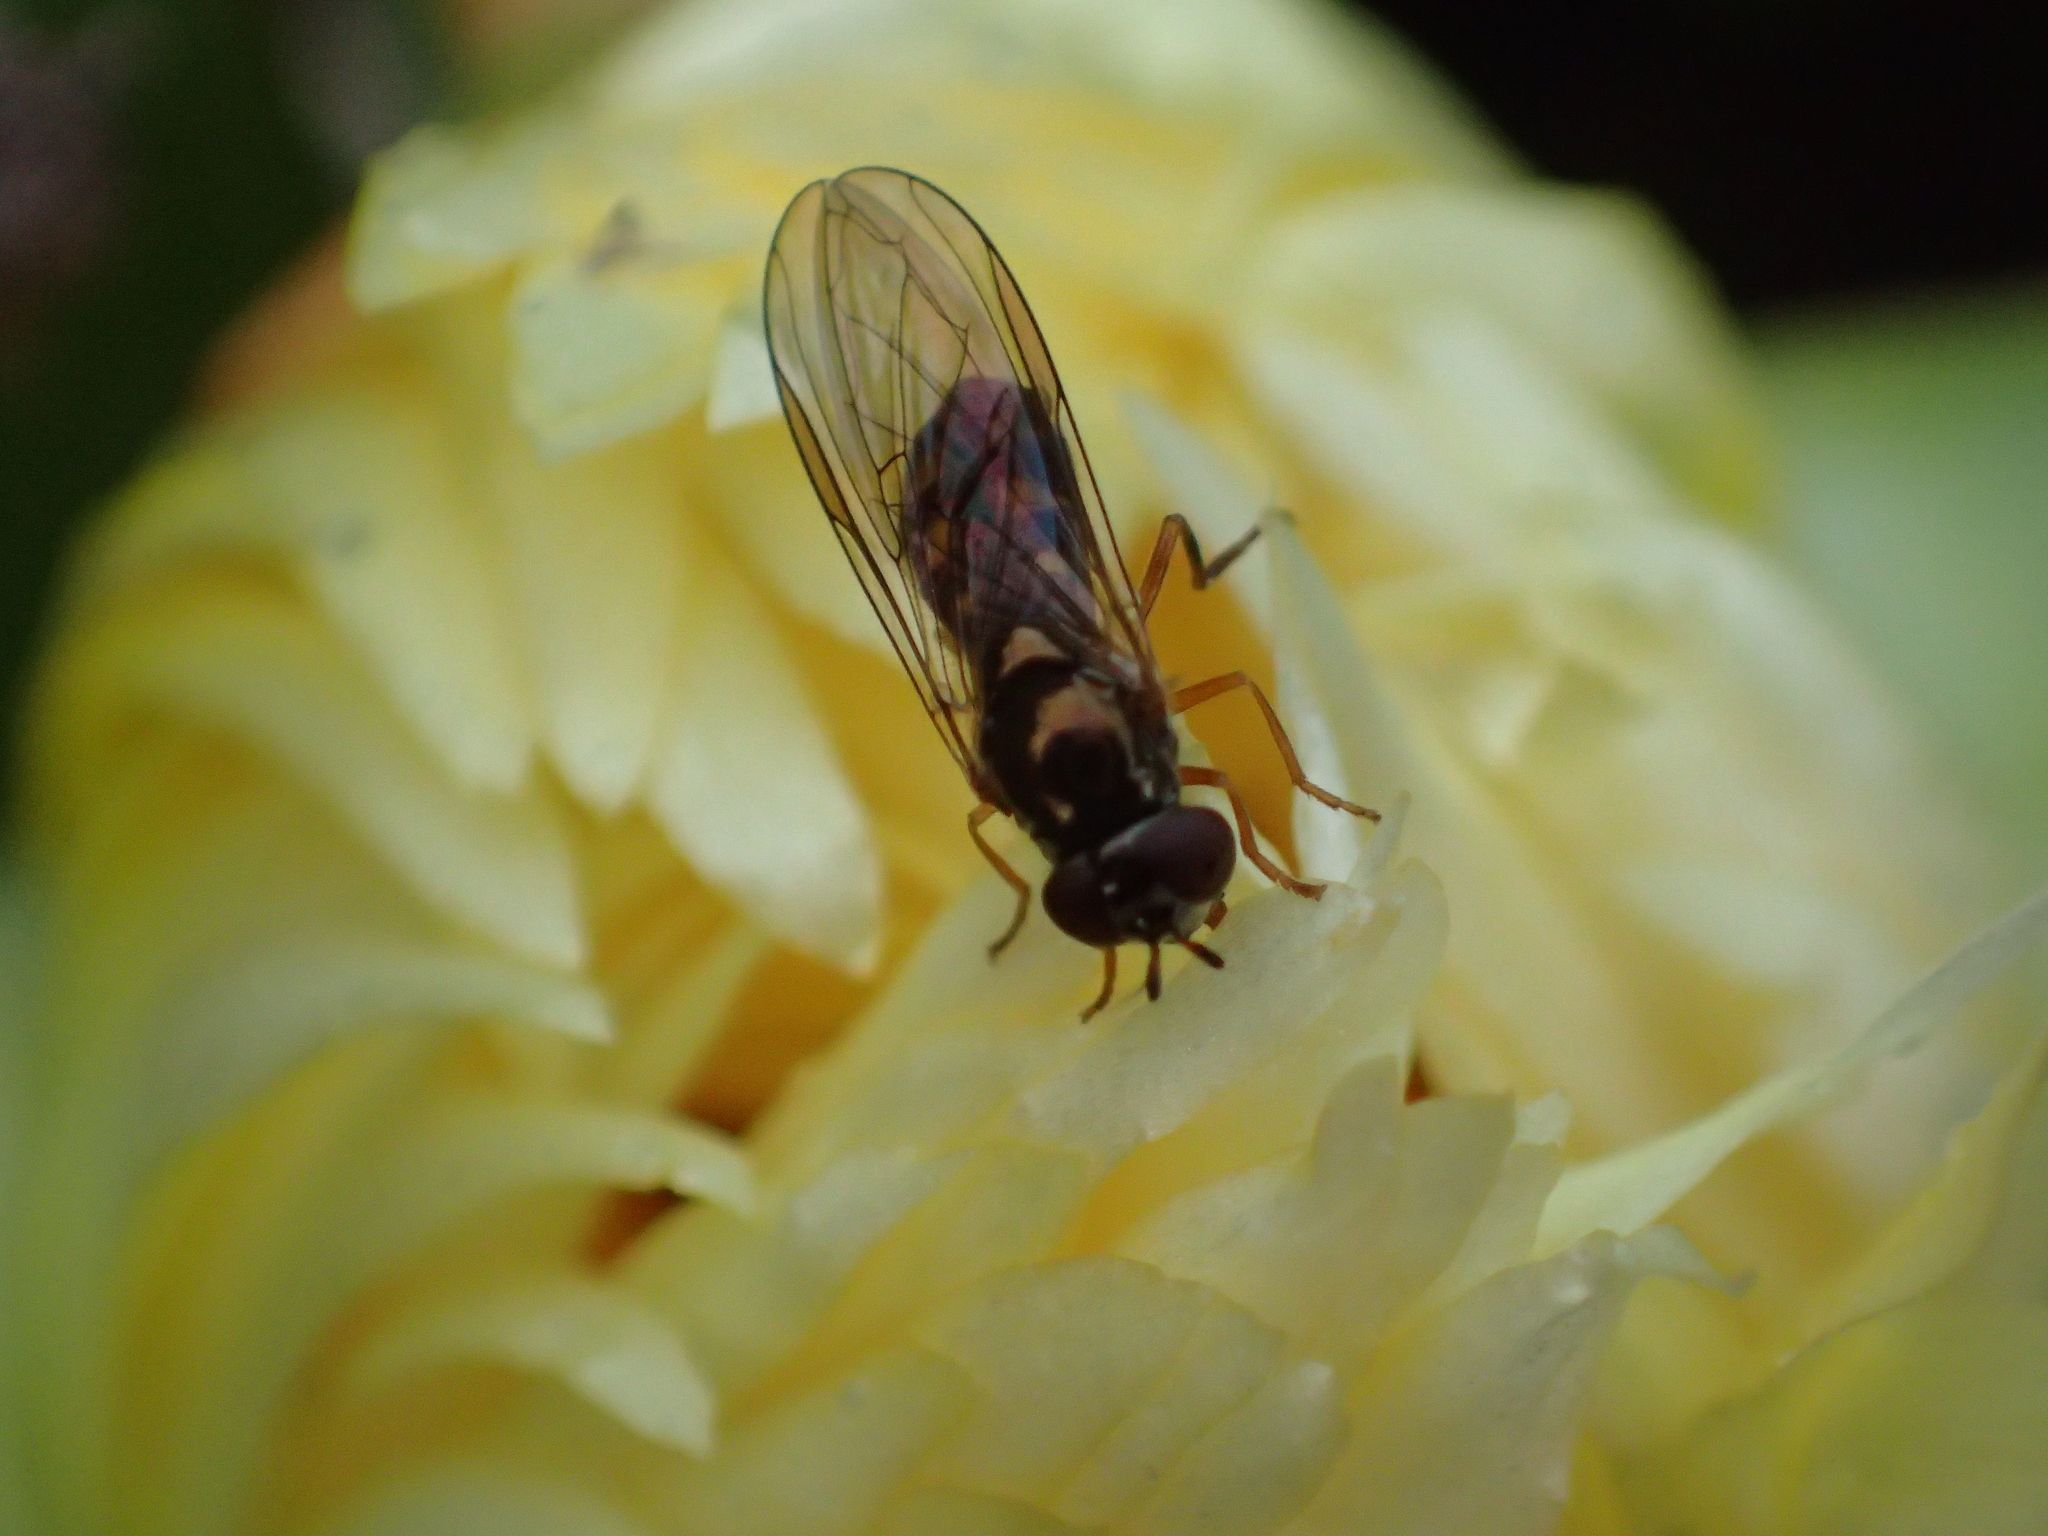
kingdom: Animalia
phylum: Arthropoda
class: Insecta
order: Diptera
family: Syrphidae
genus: Melanostoma
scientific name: Melanostoma fasciatum
